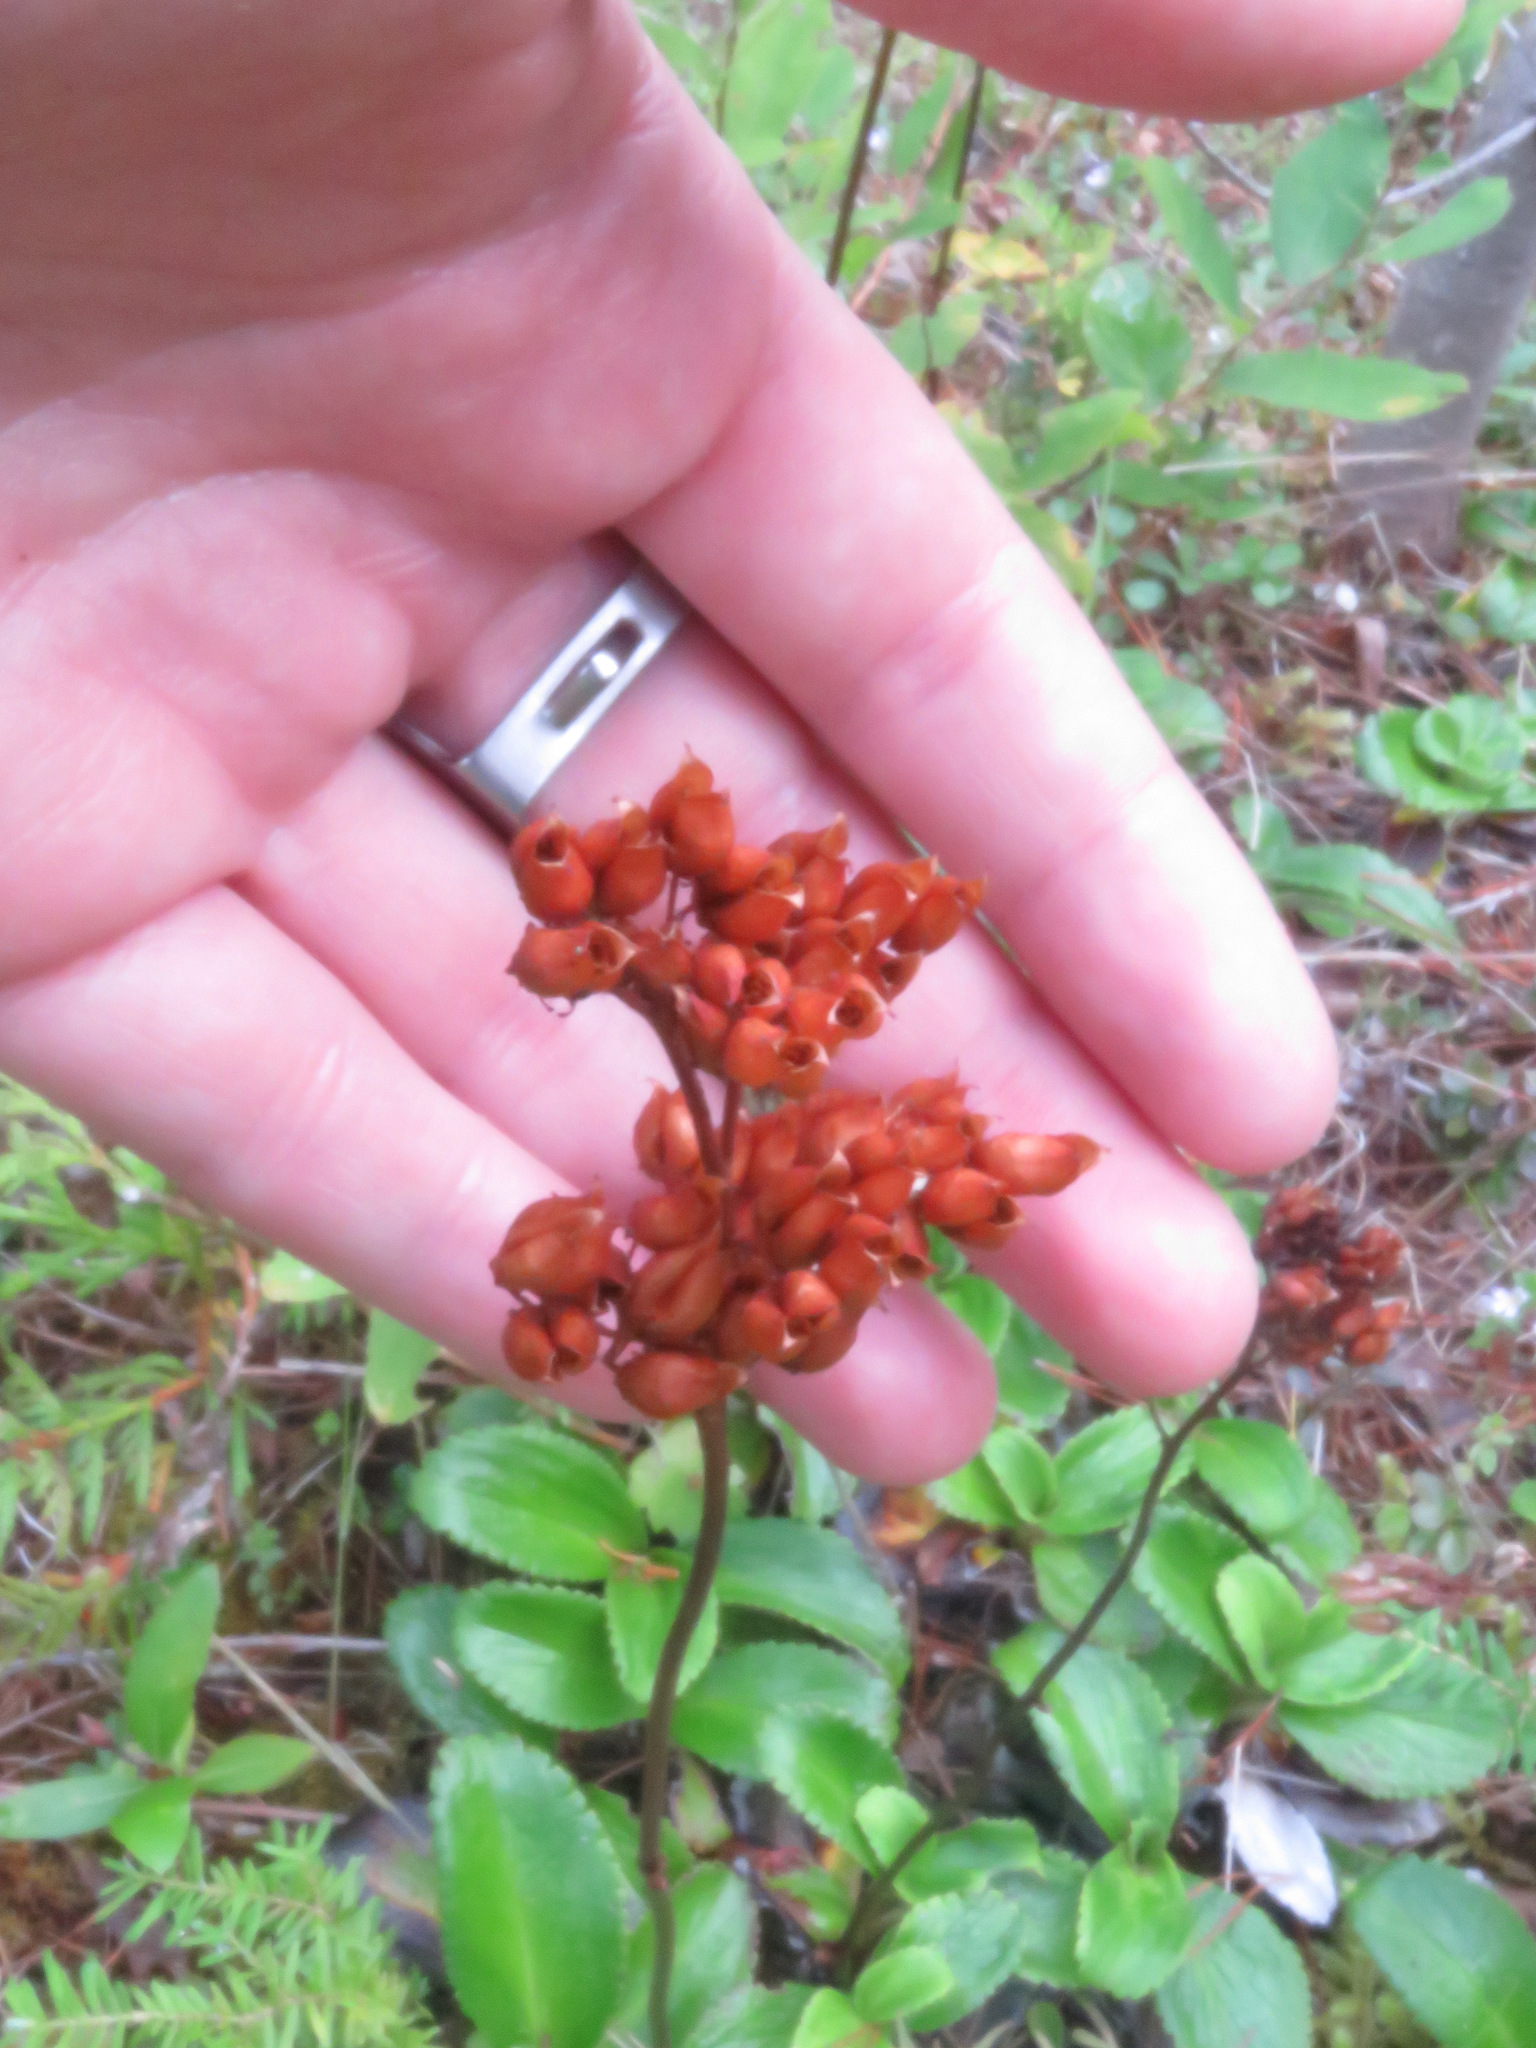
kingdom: Plantae
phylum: Tracheophyta
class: Magnoliopsida
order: Saxifragales
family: Saxifragaceae
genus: Leptarrhena
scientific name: Leptarrhena pyrolifolia
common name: Leatherleaf-saxifrage
